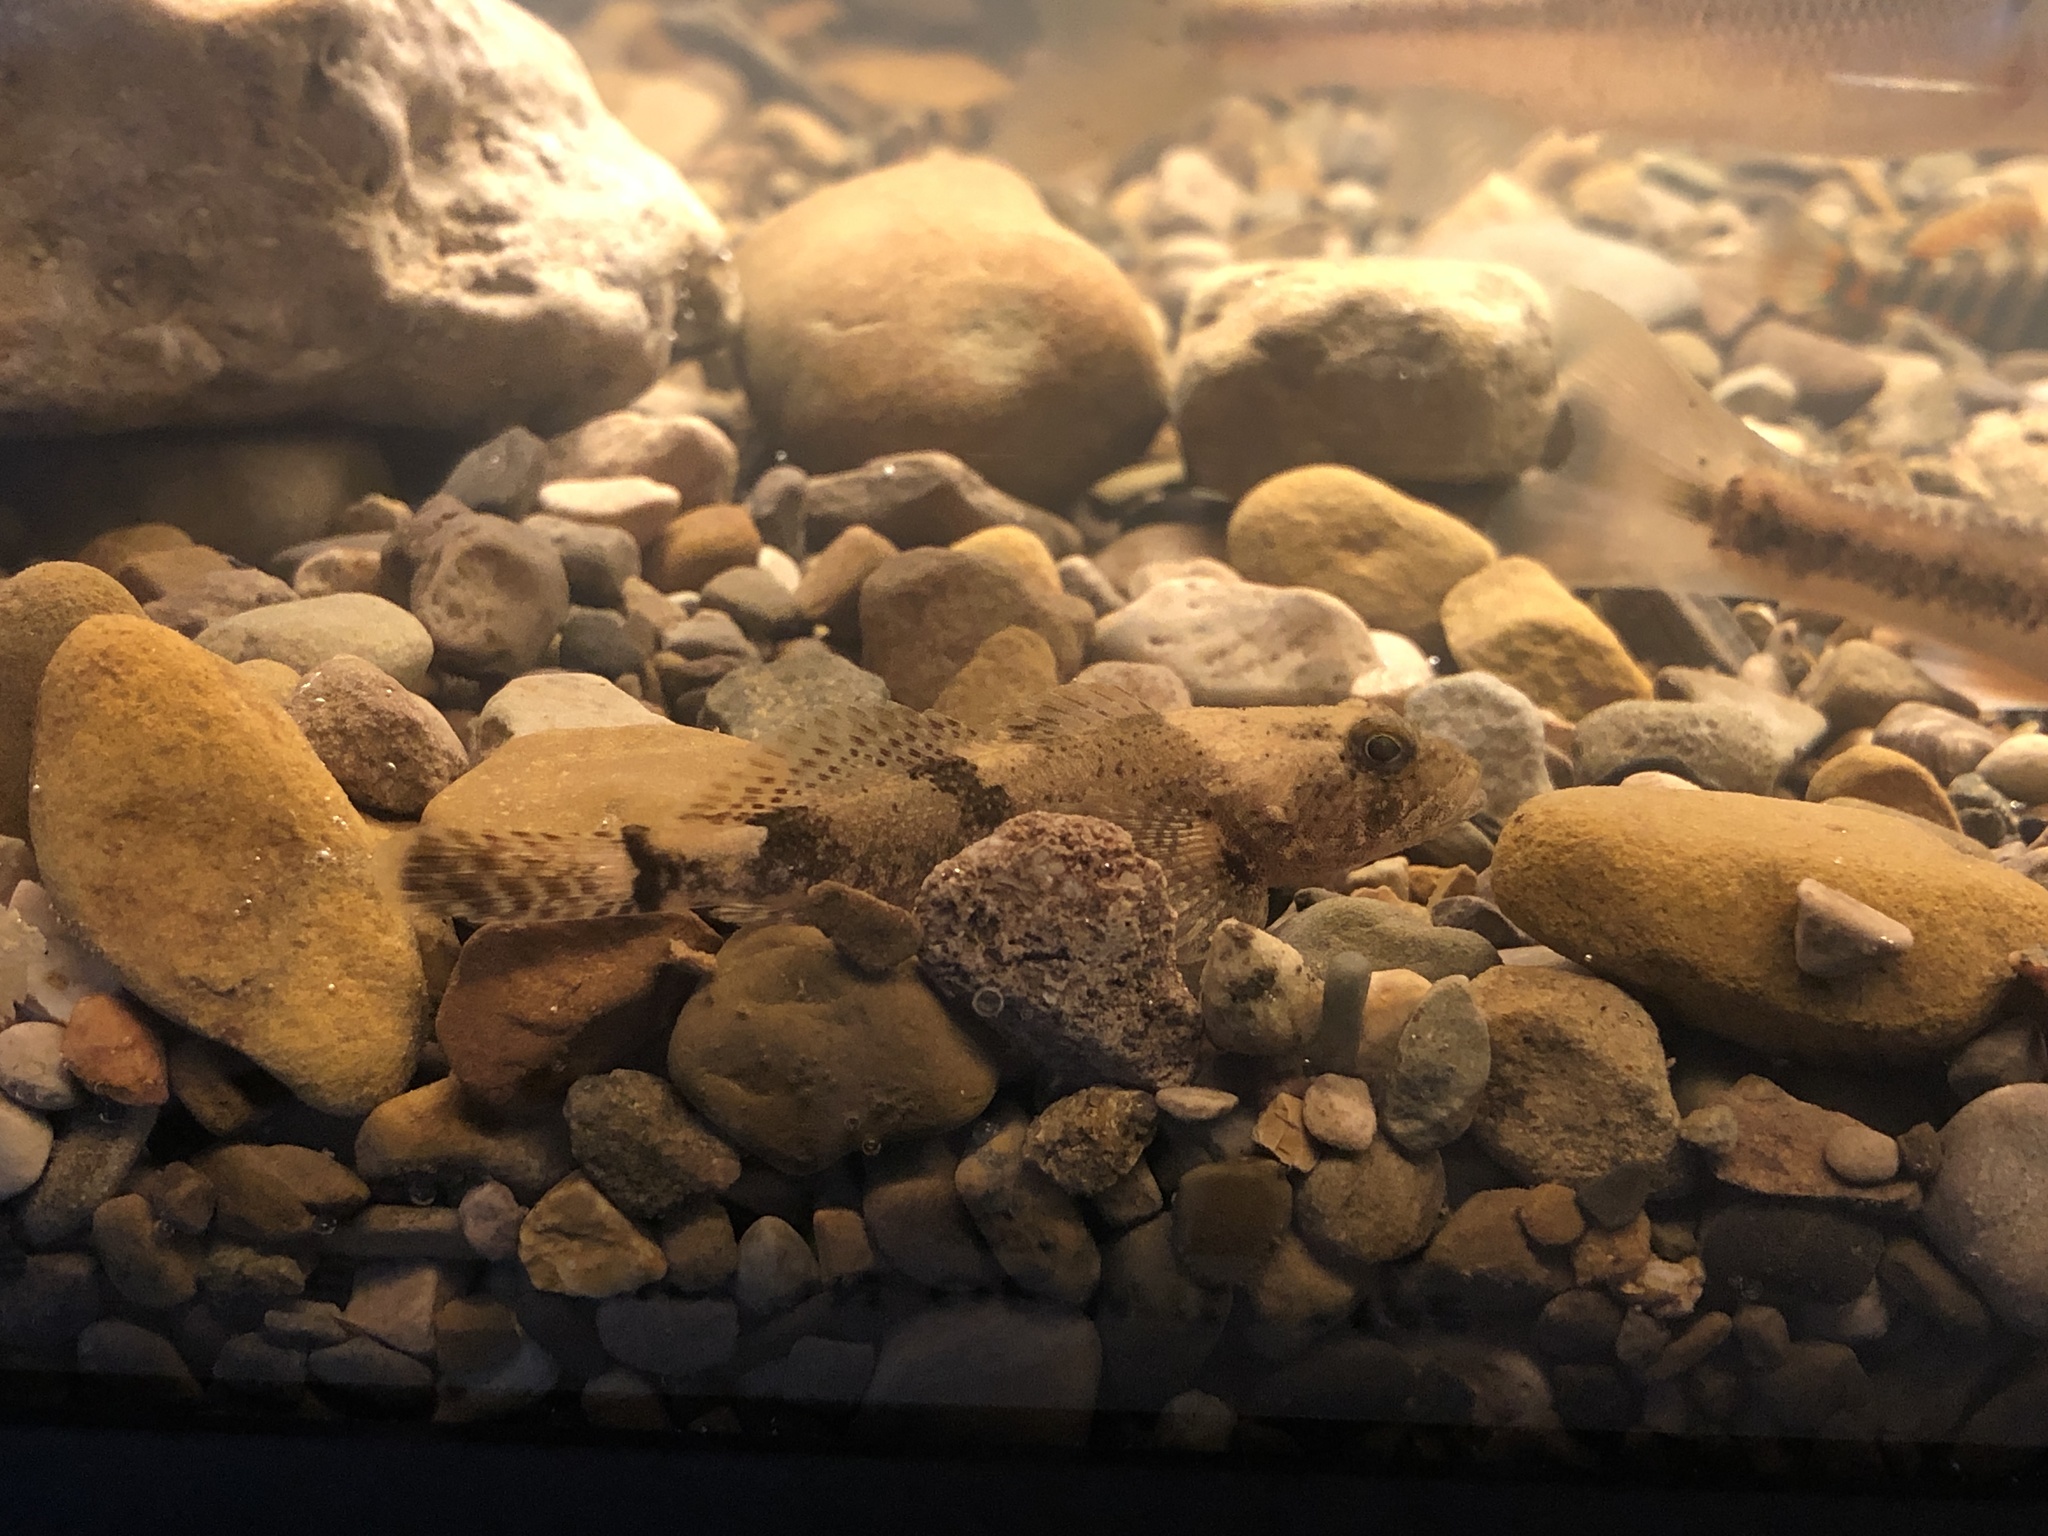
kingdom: Animalia
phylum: Chordata
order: Scorpaeniformes
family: Cottidae
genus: Cottus
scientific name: Cottus bairdii
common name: Mottled sculpin
